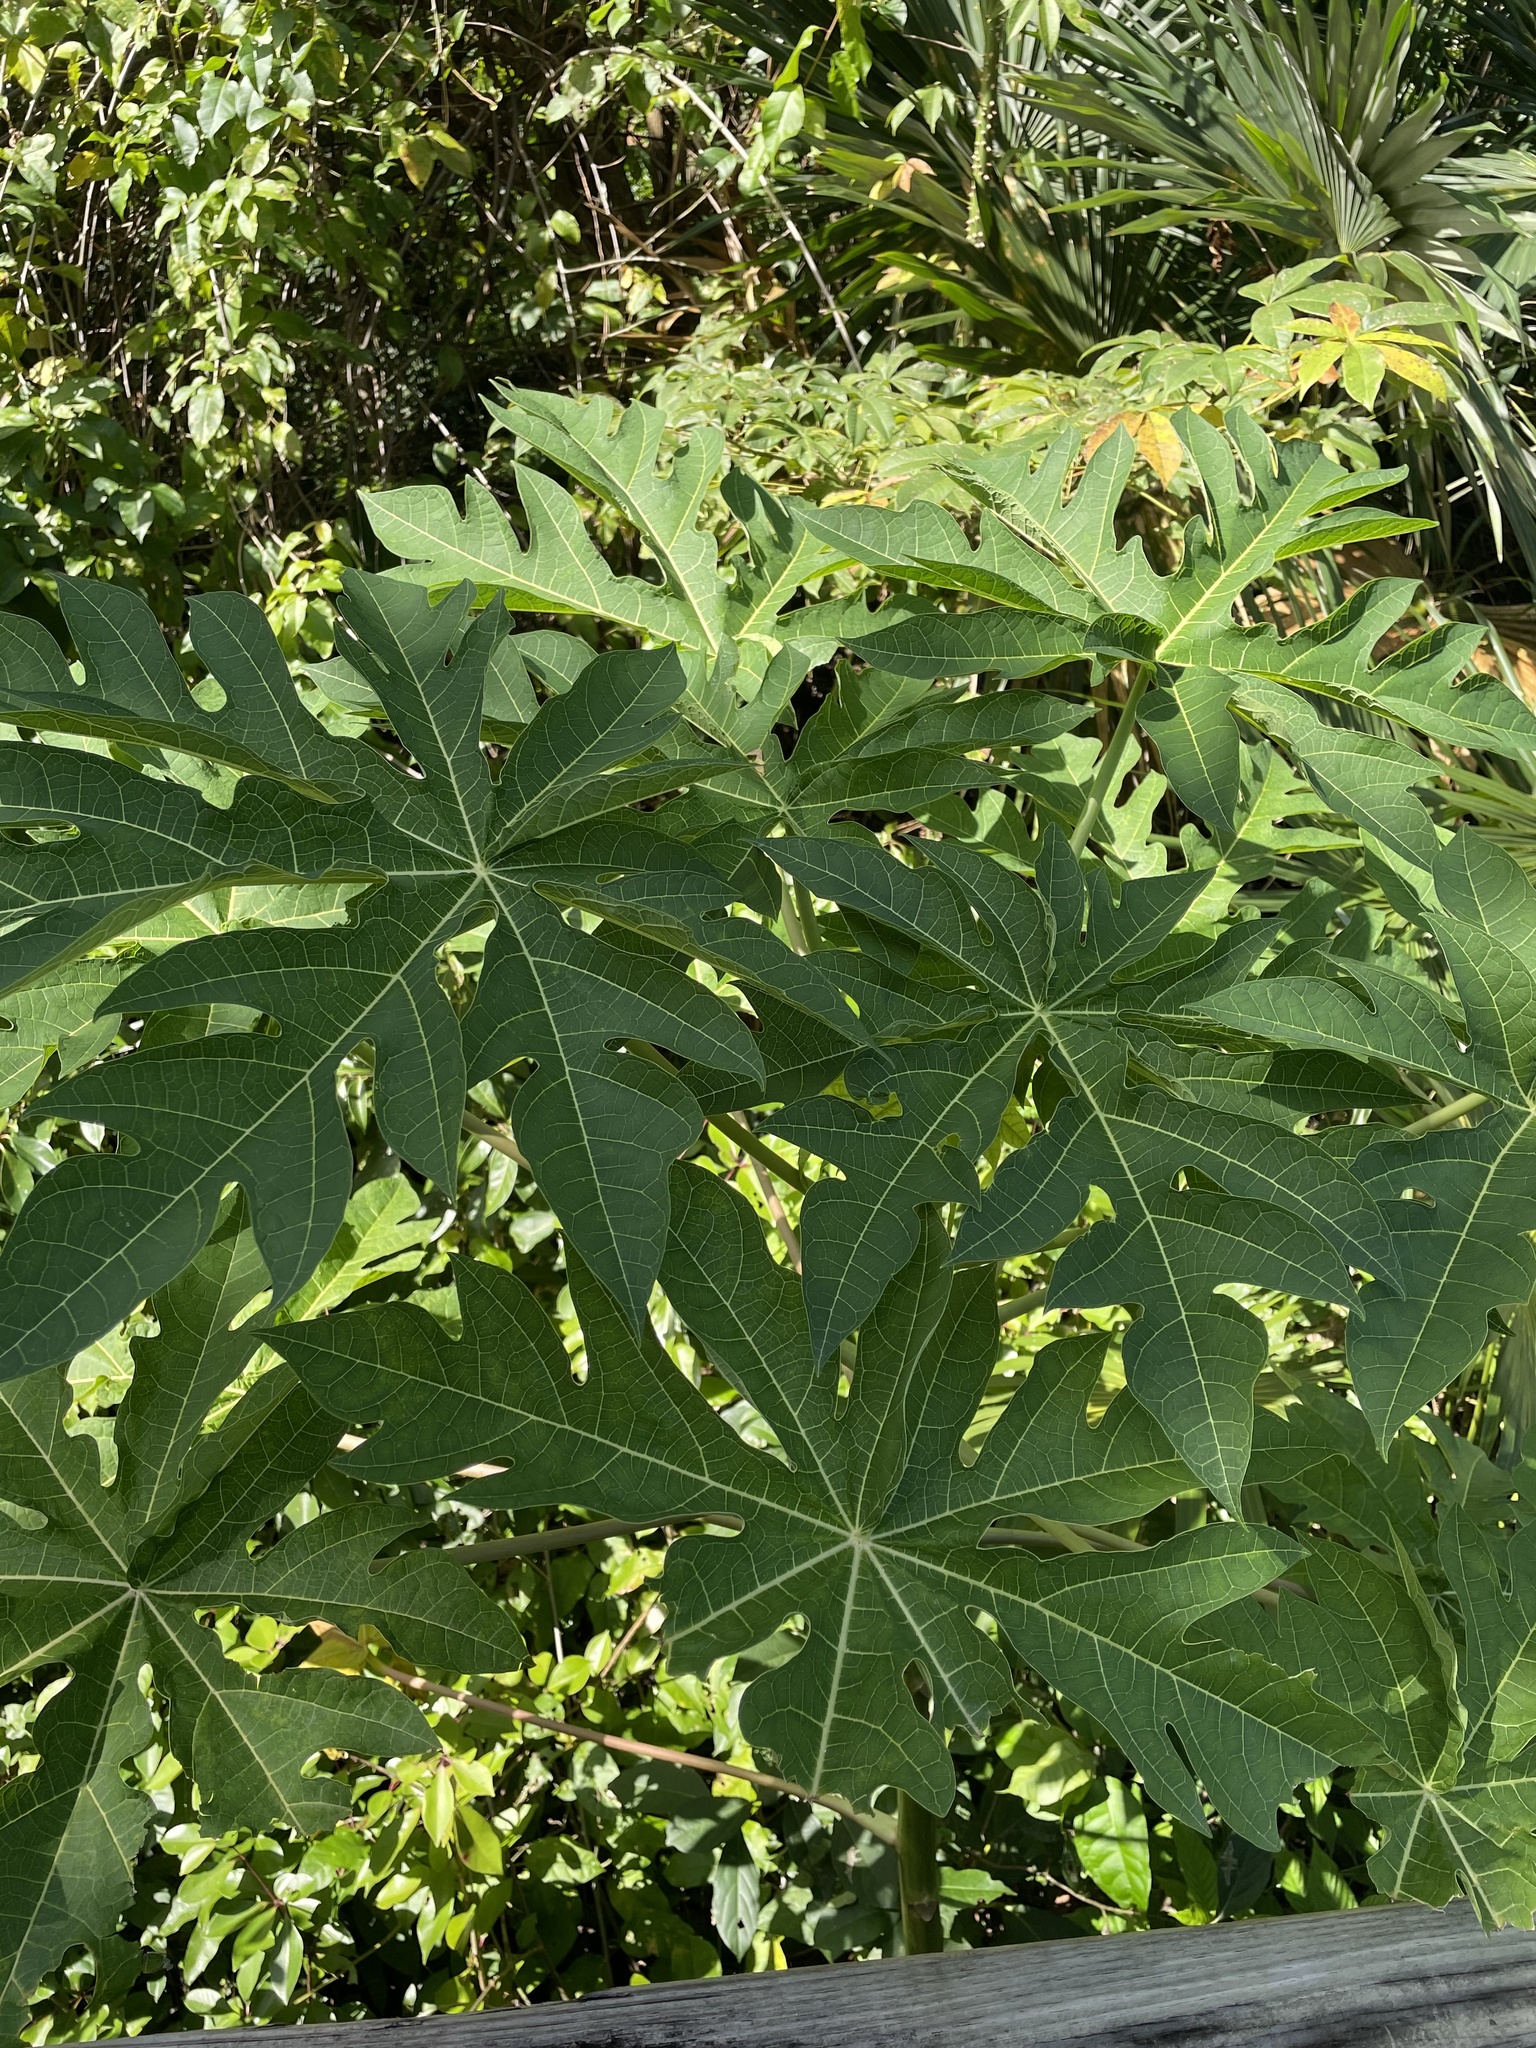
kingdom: Plantae
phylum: Tracheophyta
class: Magnoliopsida
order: Brassicales
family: Caricaceae
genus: Carica
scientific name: Carica papaya
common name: Papaya
